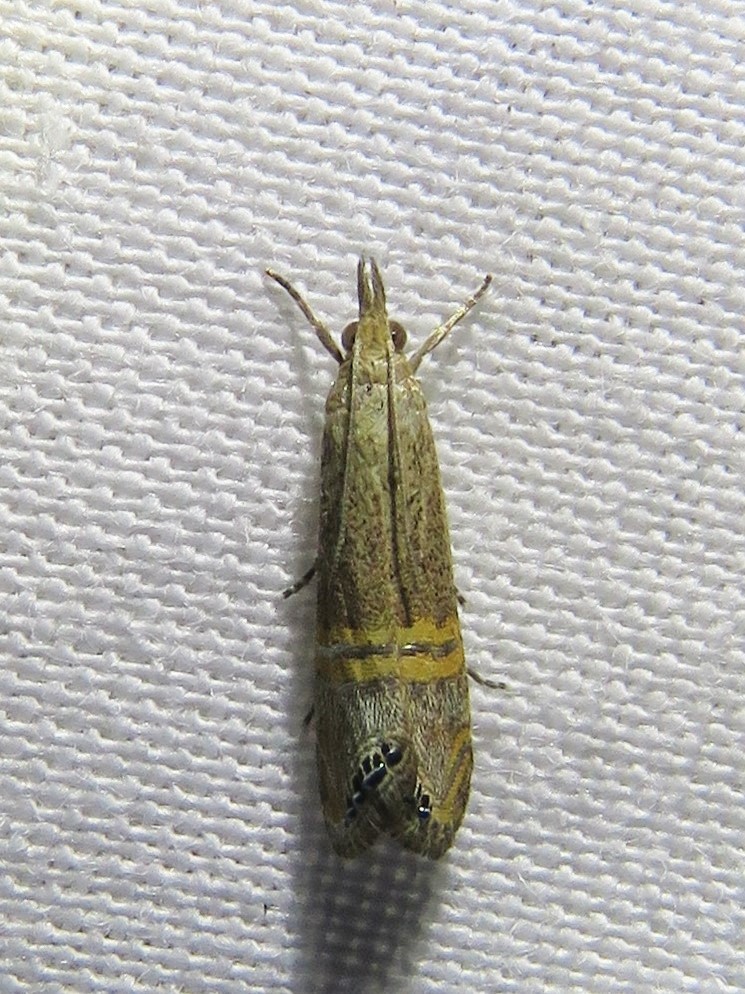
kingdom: Animalia
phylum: Arthropoda
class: Insecta
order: Lepidoptera
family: Crambidae
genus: Euchromius
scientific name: Euchromius ocellea
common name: Necklace veneer moth
